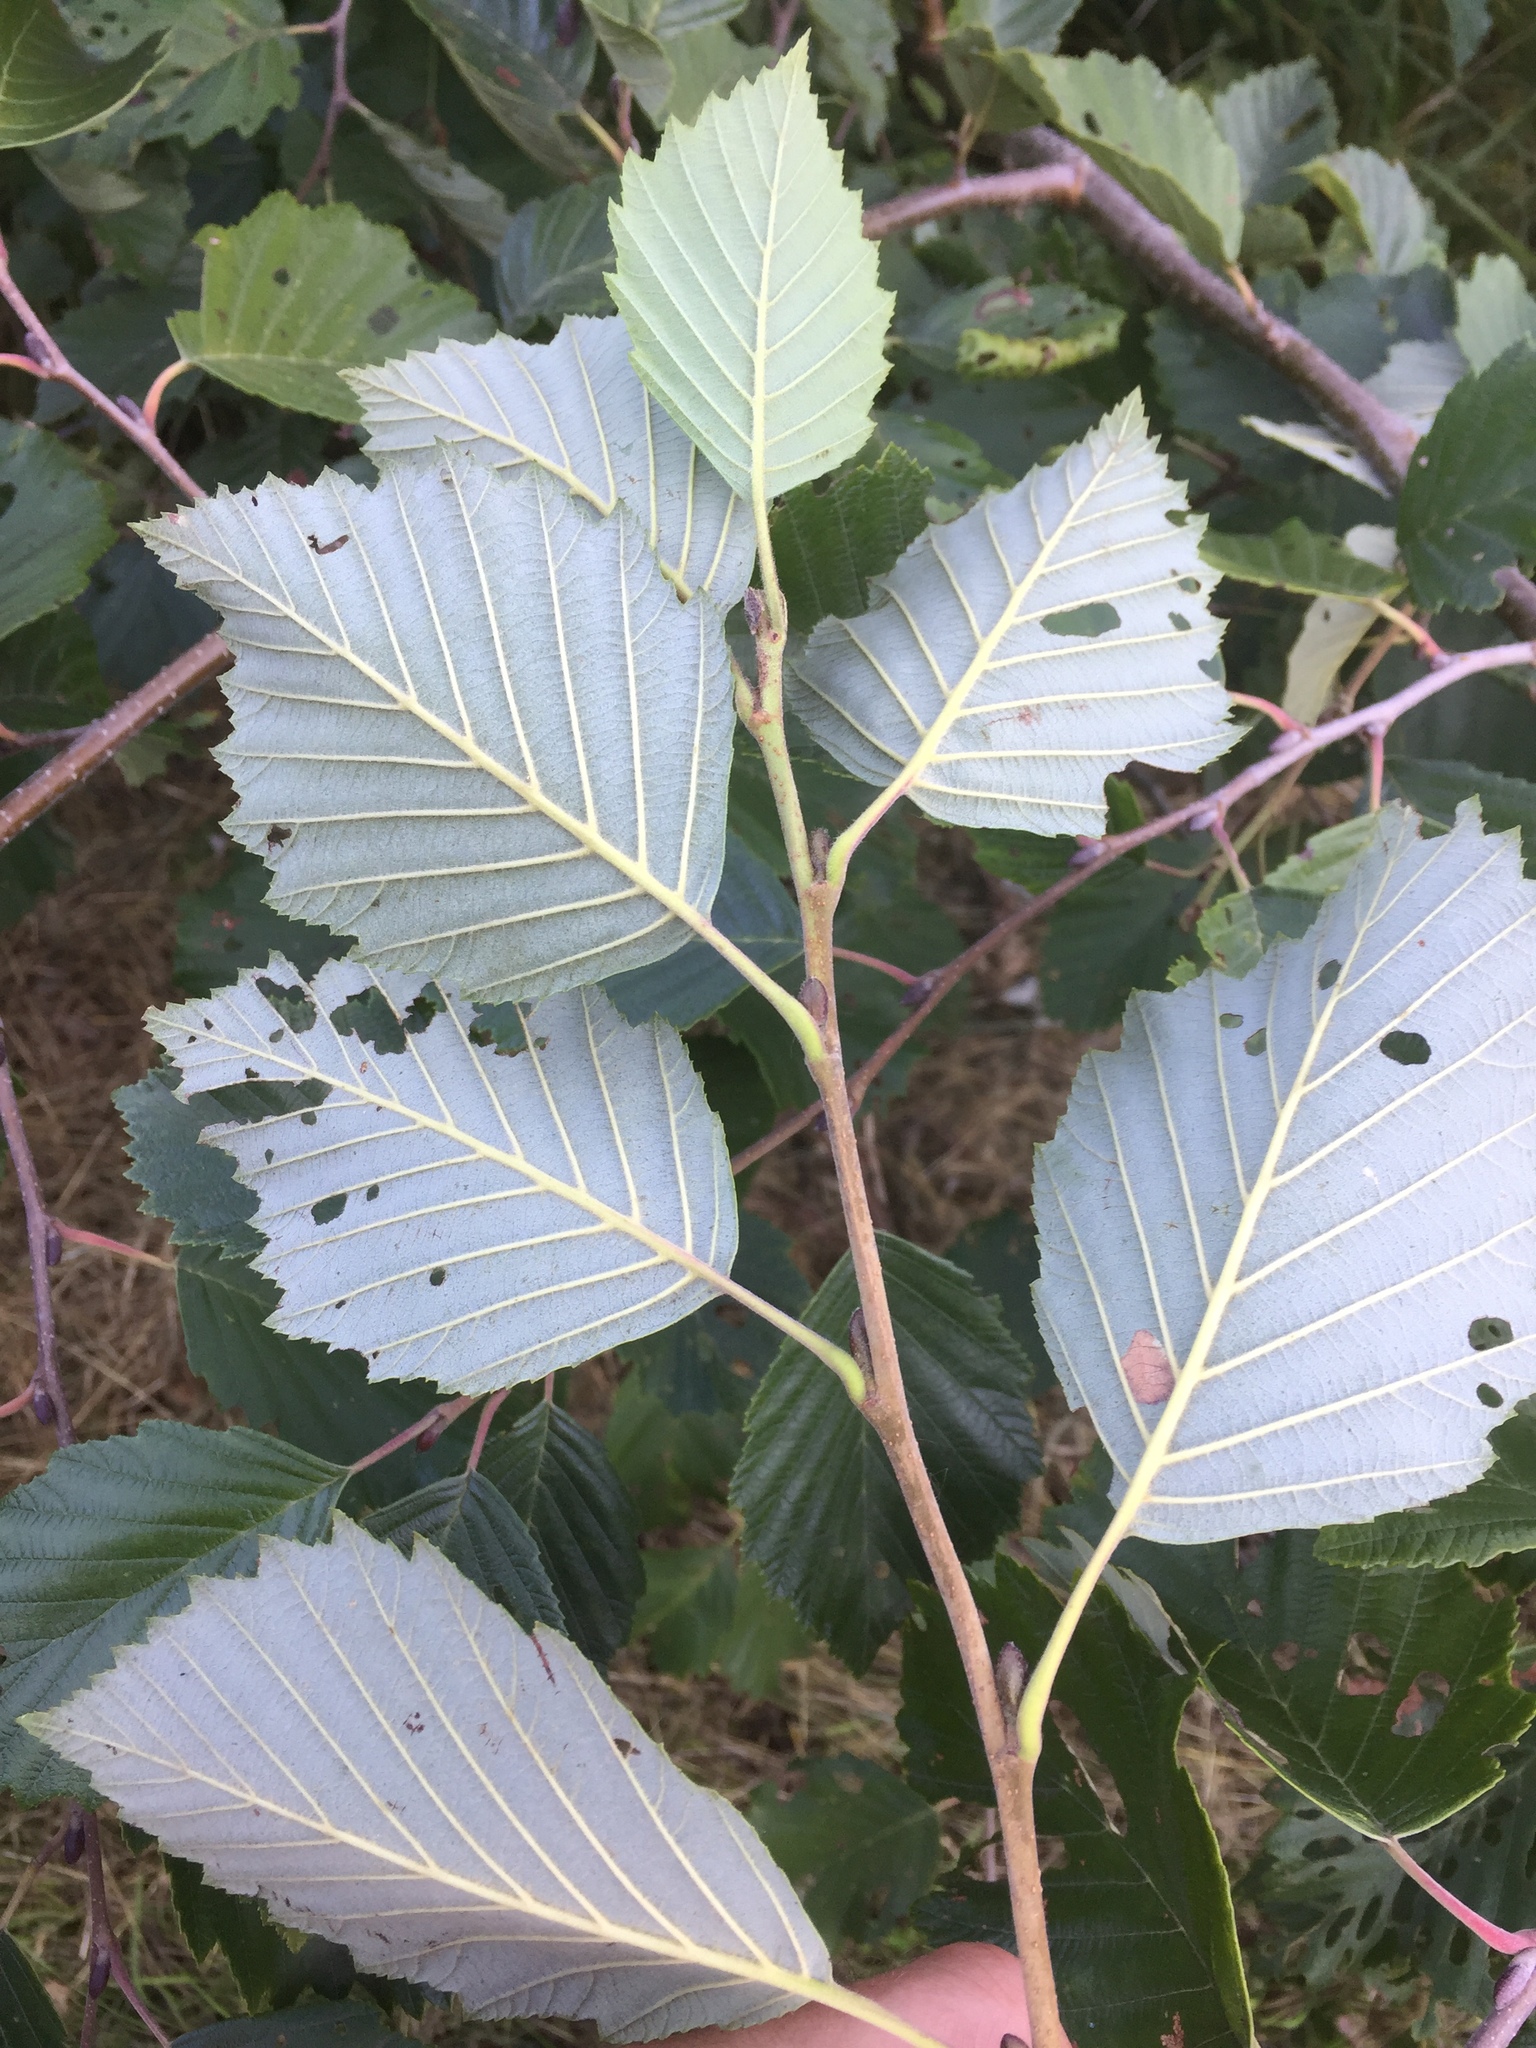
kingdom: Plantae
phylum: Tracheophyta
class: Magnoliopsida
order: Fagales
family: Betulaceae
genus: Alnus
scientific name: Alnus incana
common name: Grey alder
